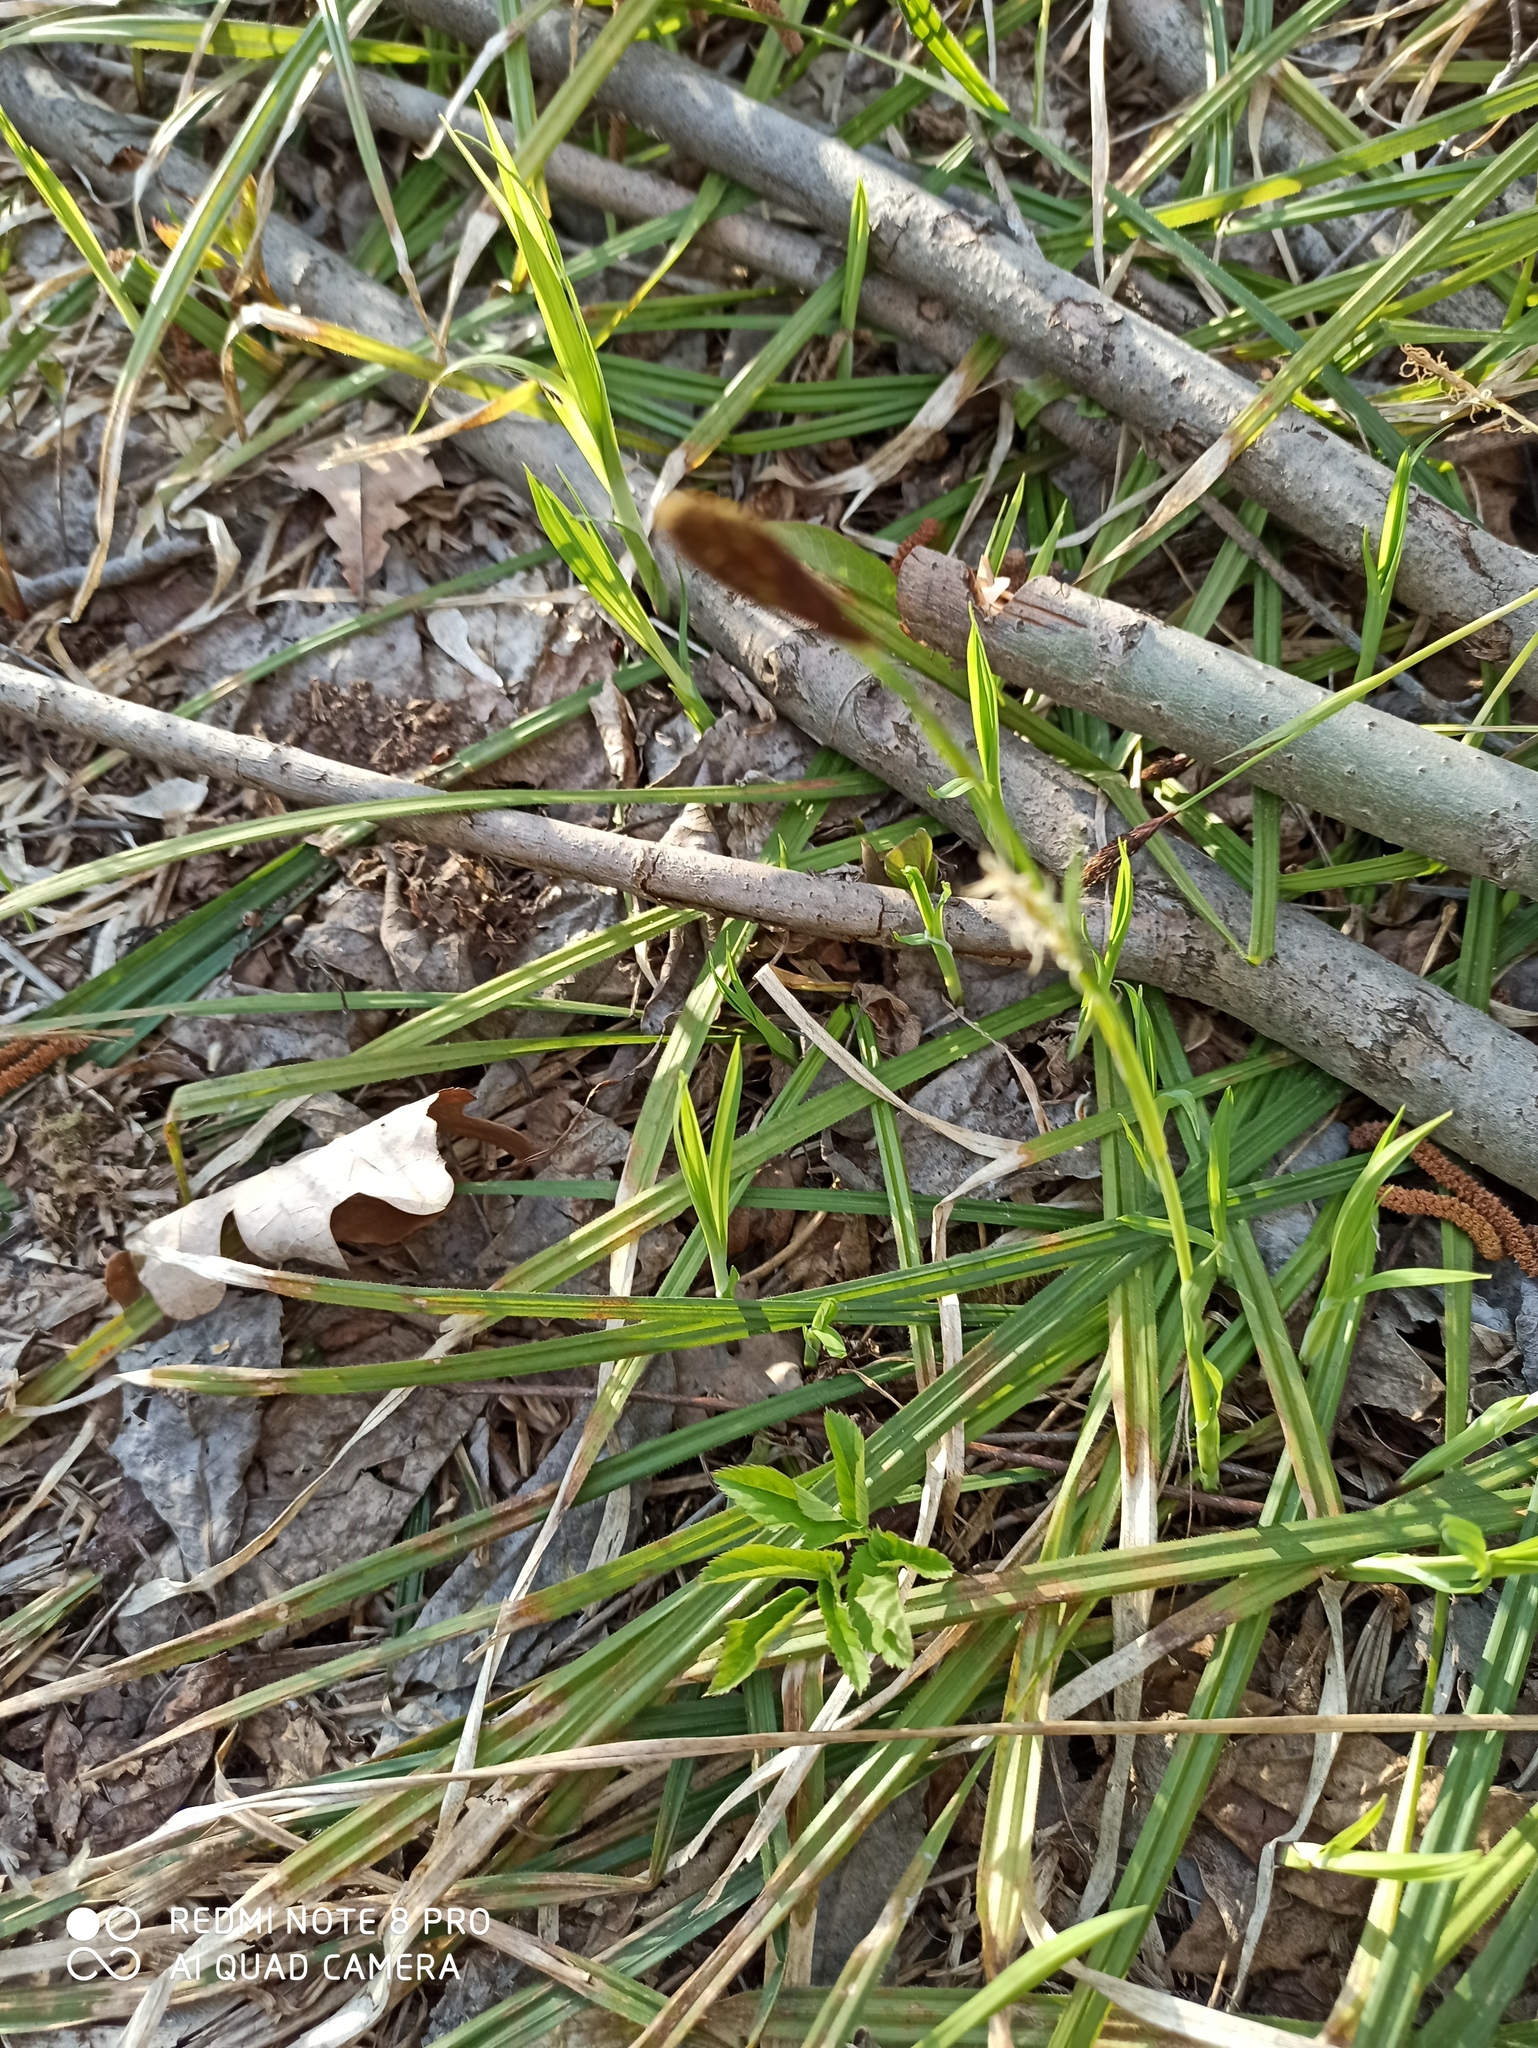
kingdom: Plantae
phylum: Tracheophyta
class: Liliopsida
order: Poales
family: Cyperaceae
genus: Carex
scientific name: Carex pilosa
